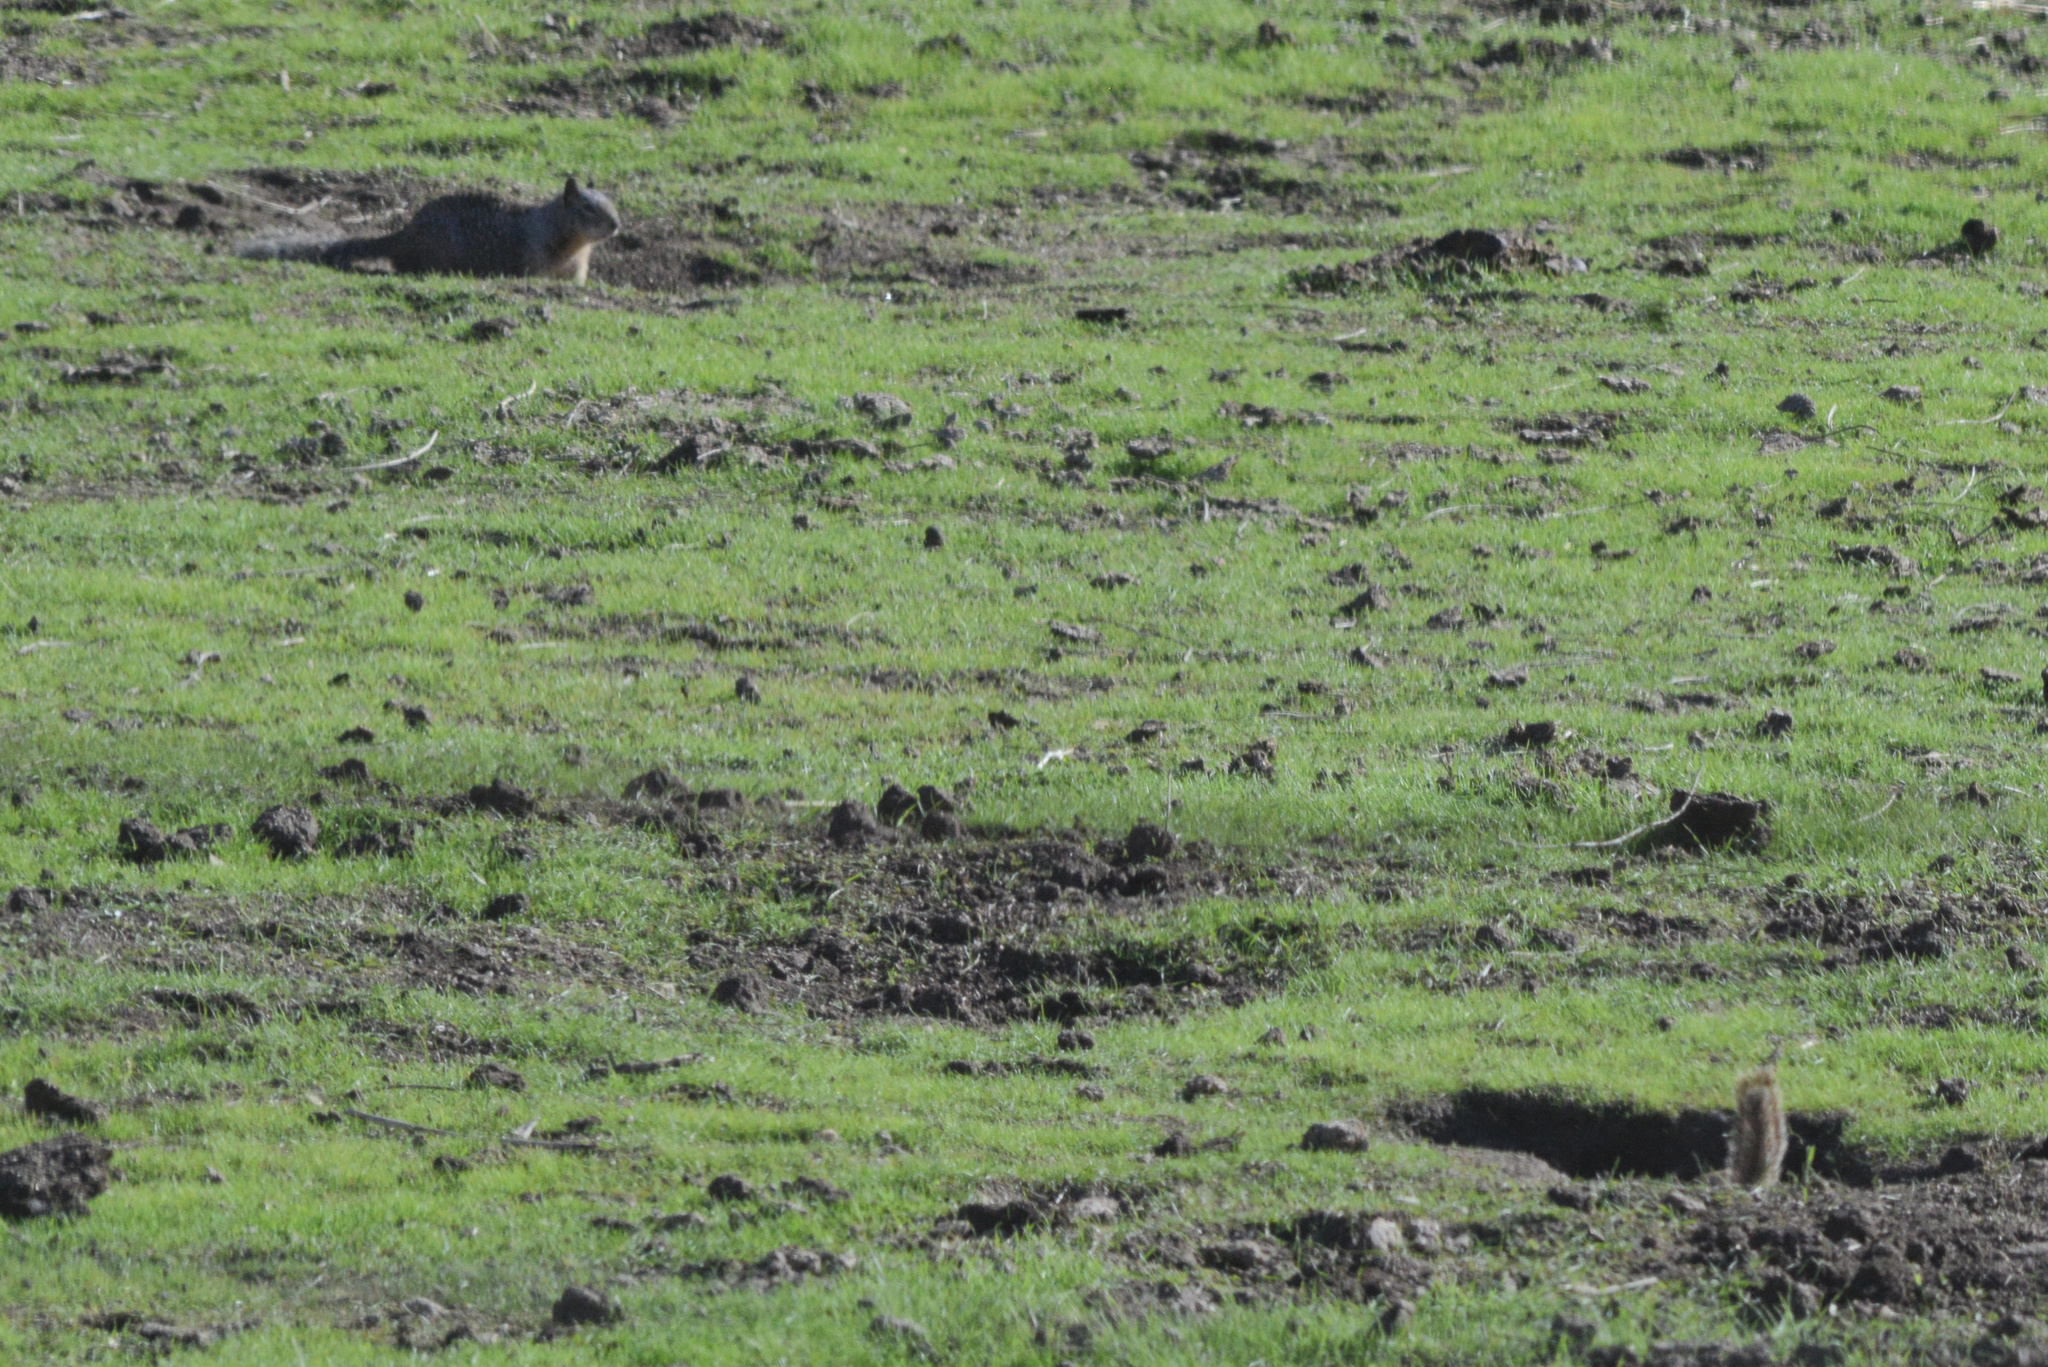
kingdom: Animalia
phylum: Chordata
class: Mammalia
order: Rodentia
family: Sciuridae
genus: Otospermophilus
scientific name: Otospermophilus beecheyi
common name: California ground squirrel
